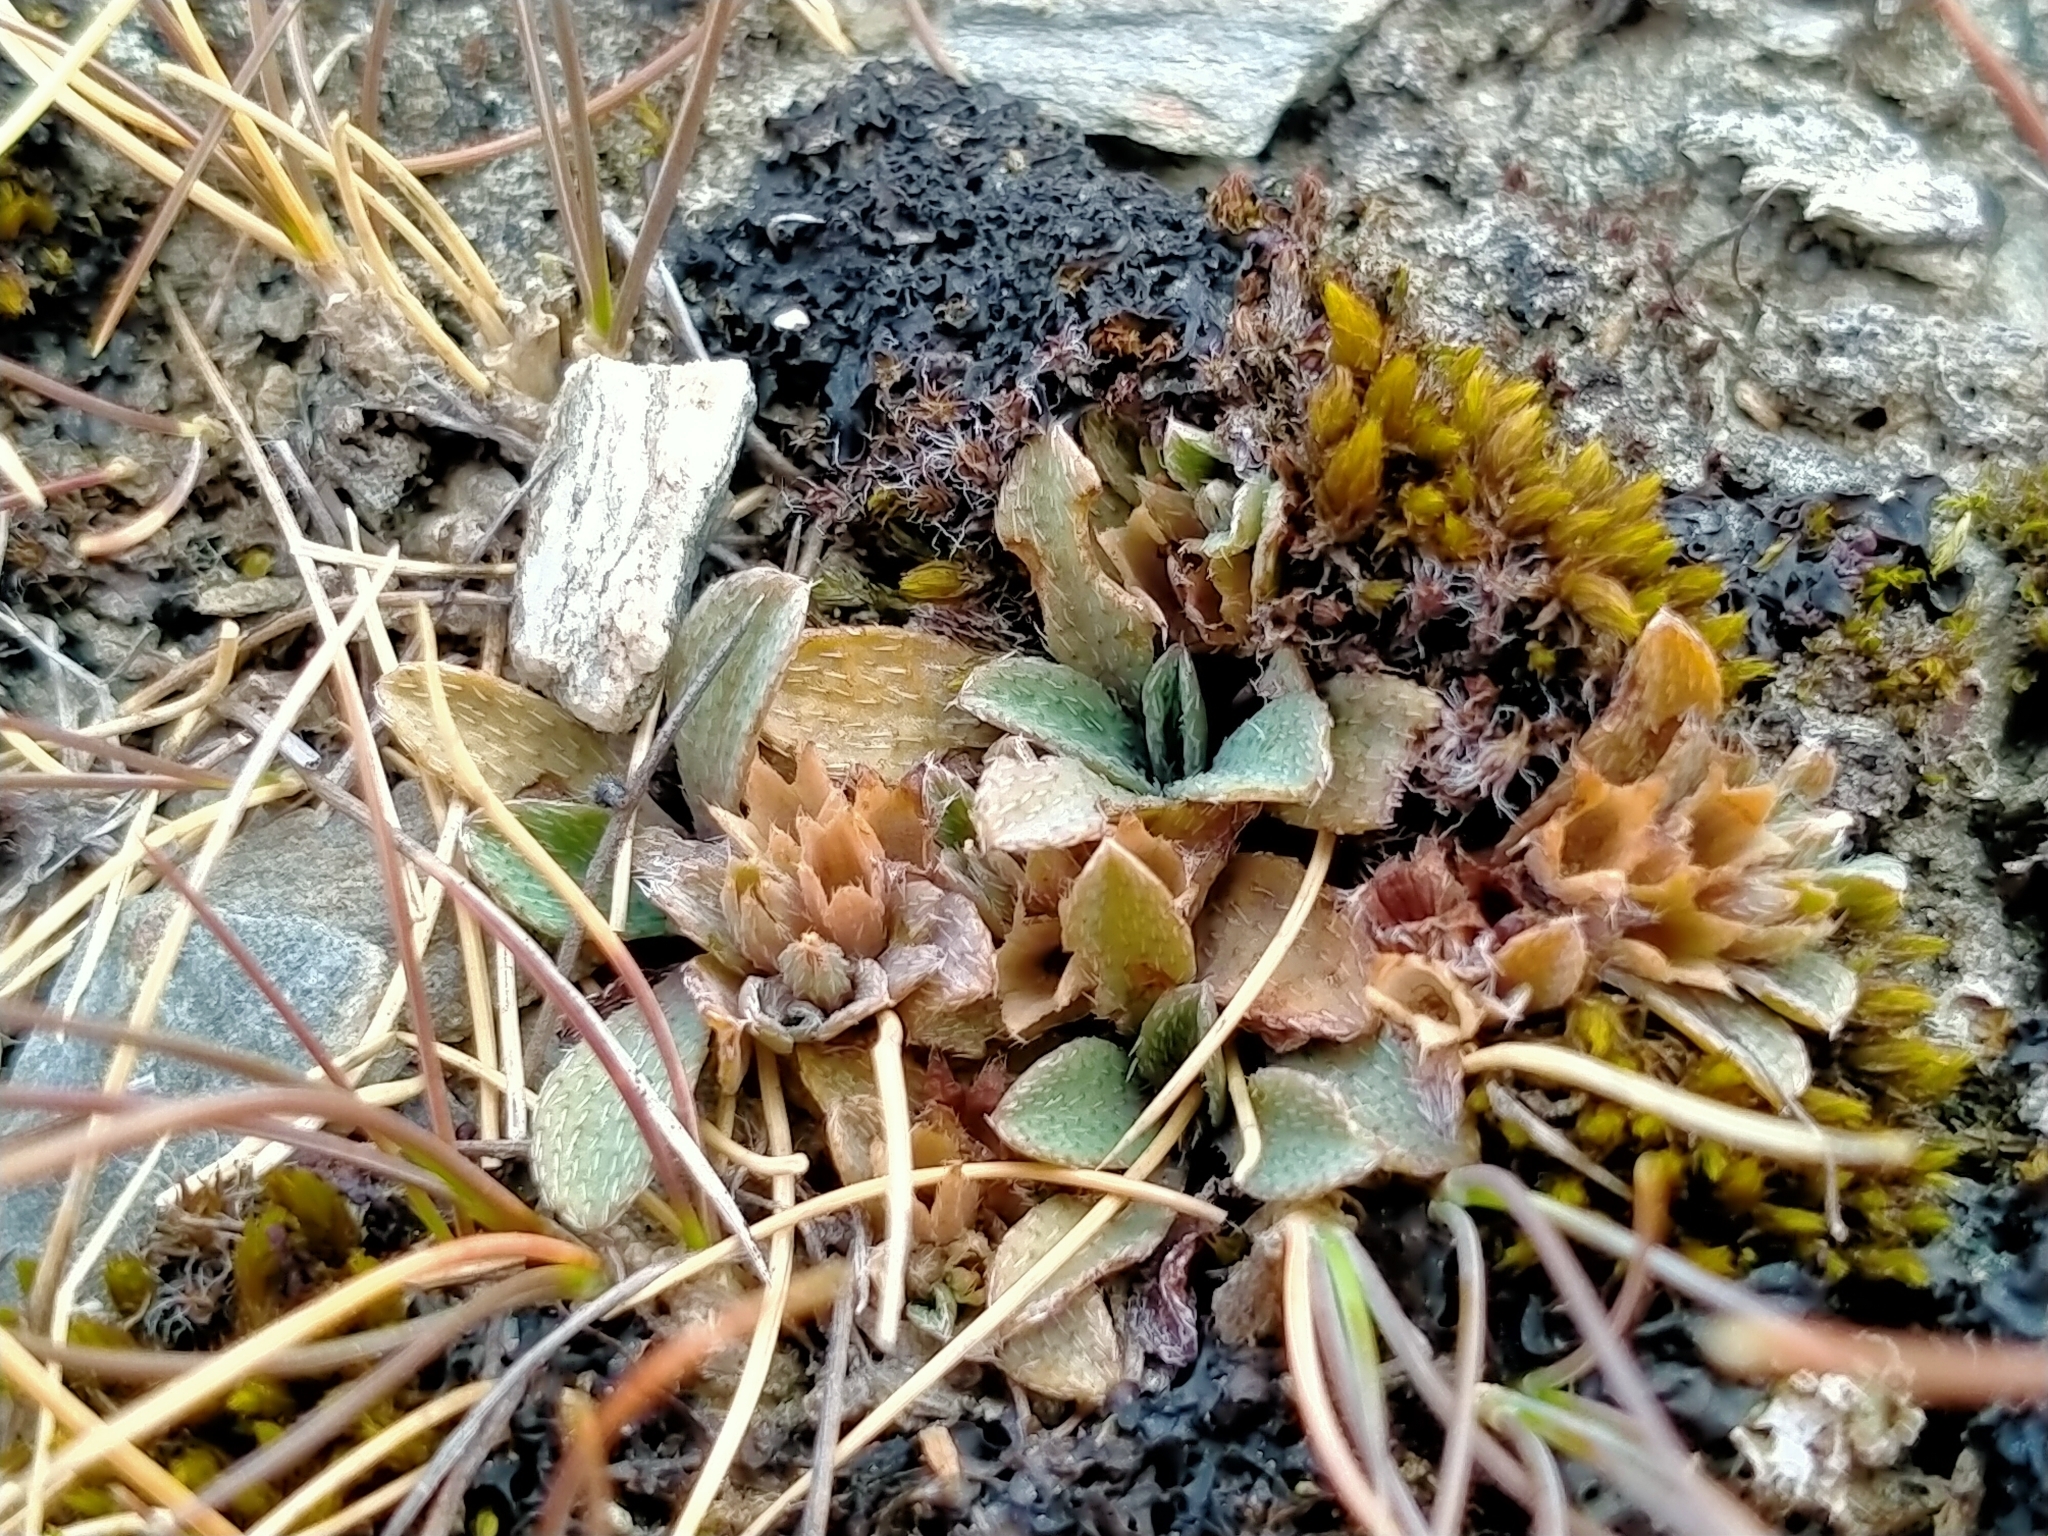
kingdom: Plantae
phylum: Tracheophyta
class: Magnoliopsida
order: Boraginales
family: Boraginaceae
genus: Myosotis
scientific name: Myosotis glauca
